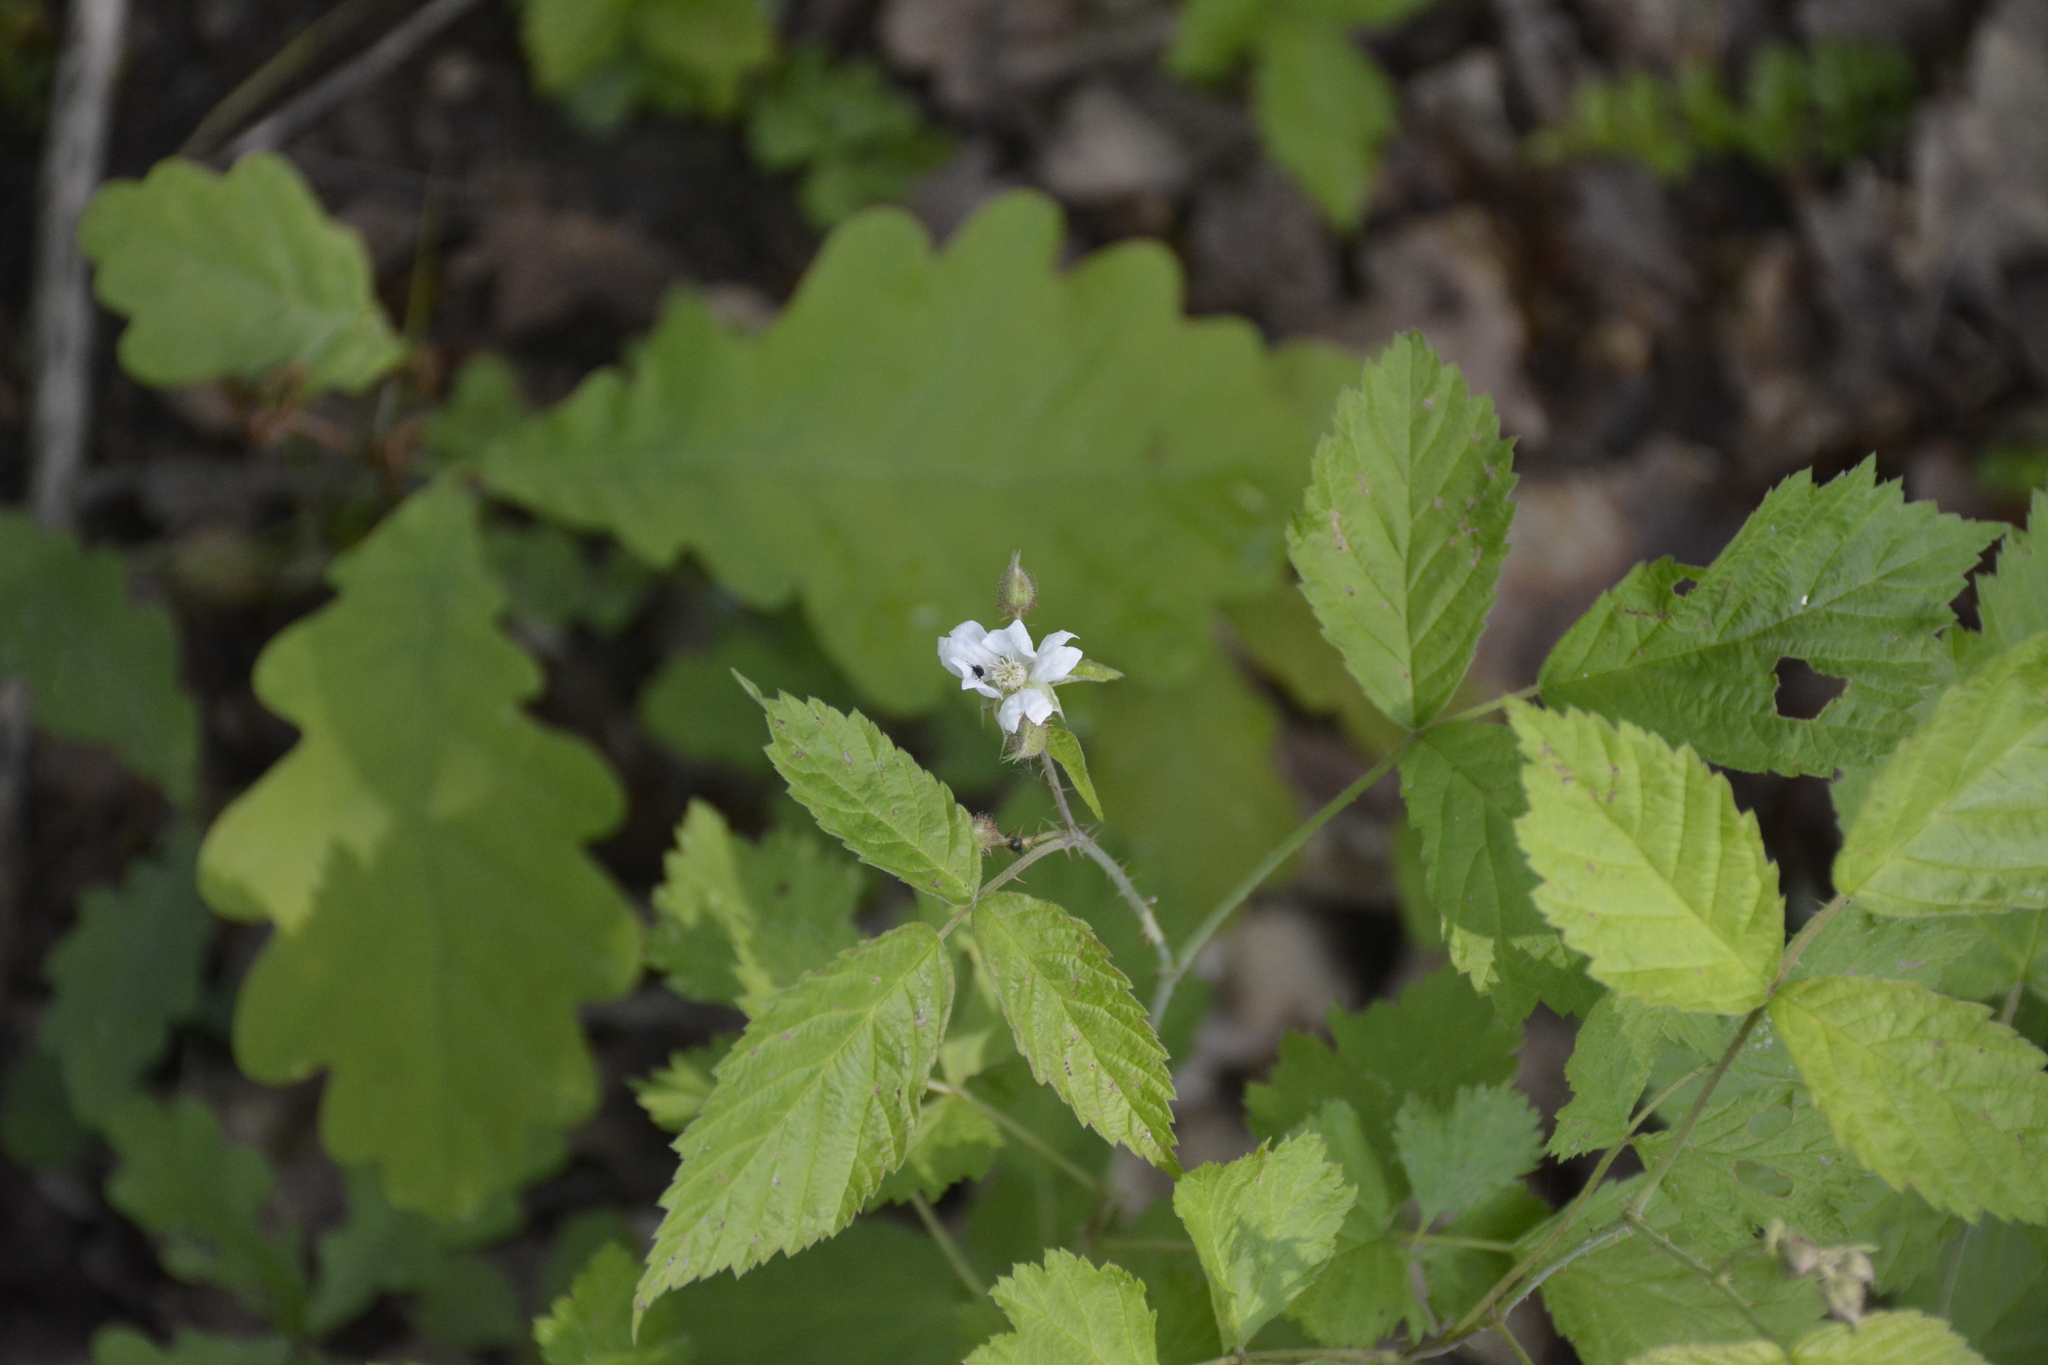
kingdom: Plantae
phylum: Tracheophyta
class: Magnoliopsida
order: Rosales
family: Rosaceae
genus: Rubus
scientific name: Rubus caesius
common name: Dewberry
